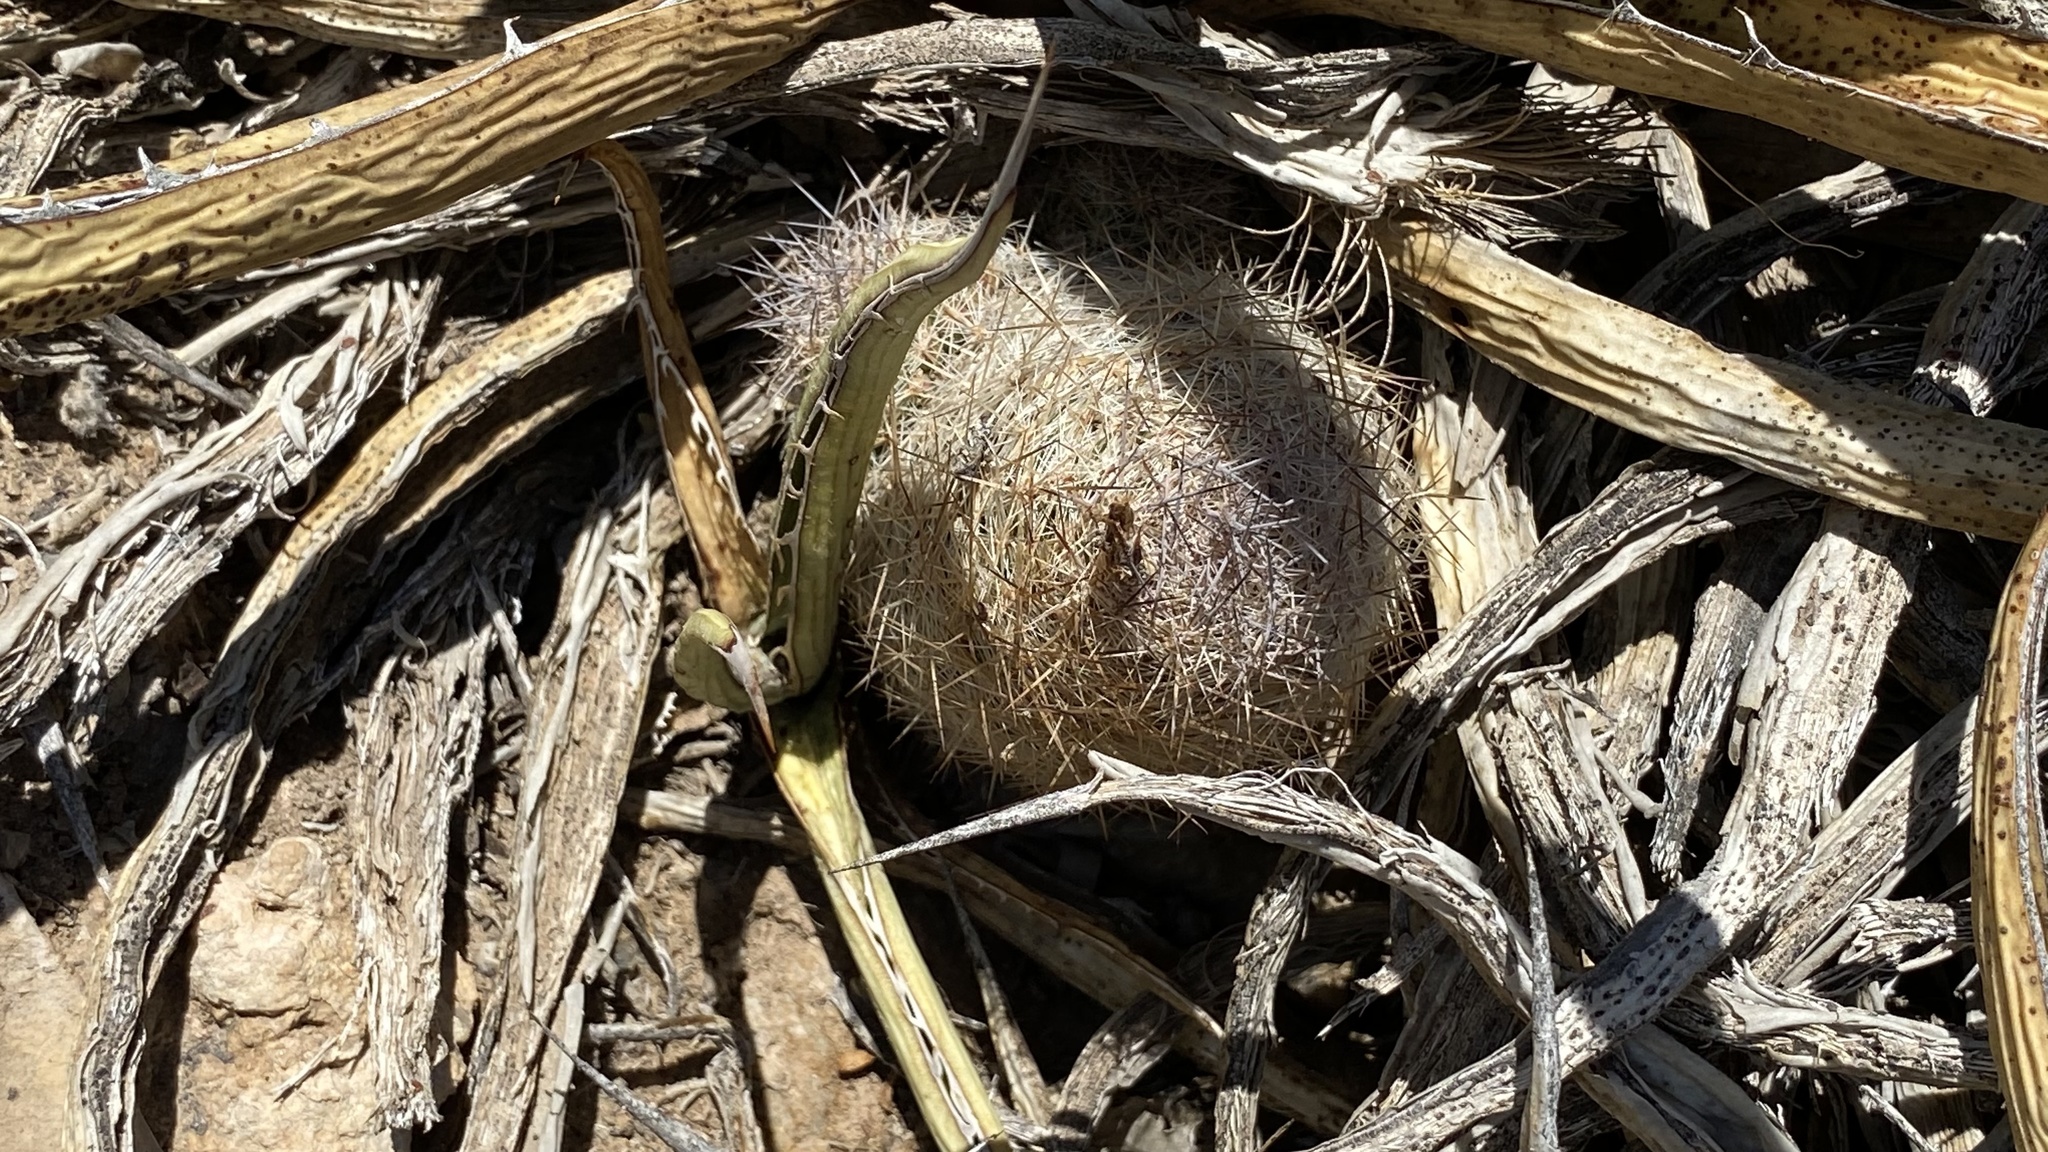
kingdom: Plantae
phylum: Tracheophyta
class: Magnoliopsida
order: Caryophyllales
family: Cactaceae
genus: Pelecyphora
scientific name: Pelecyphora tuberculosa
